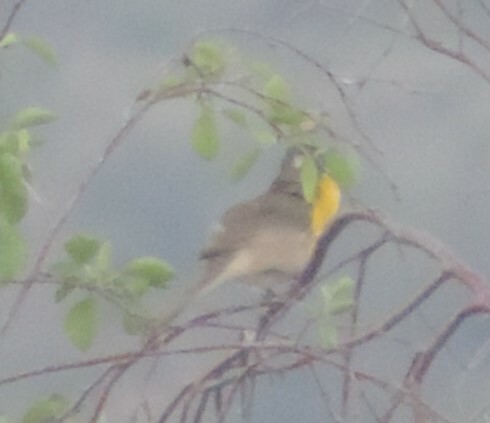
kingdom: Animalia
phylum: Chordata
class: Aves
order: Passeriformes
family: Parulidae
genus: Icteria
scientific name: Icteria virens
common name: Yellow-breasted chat
